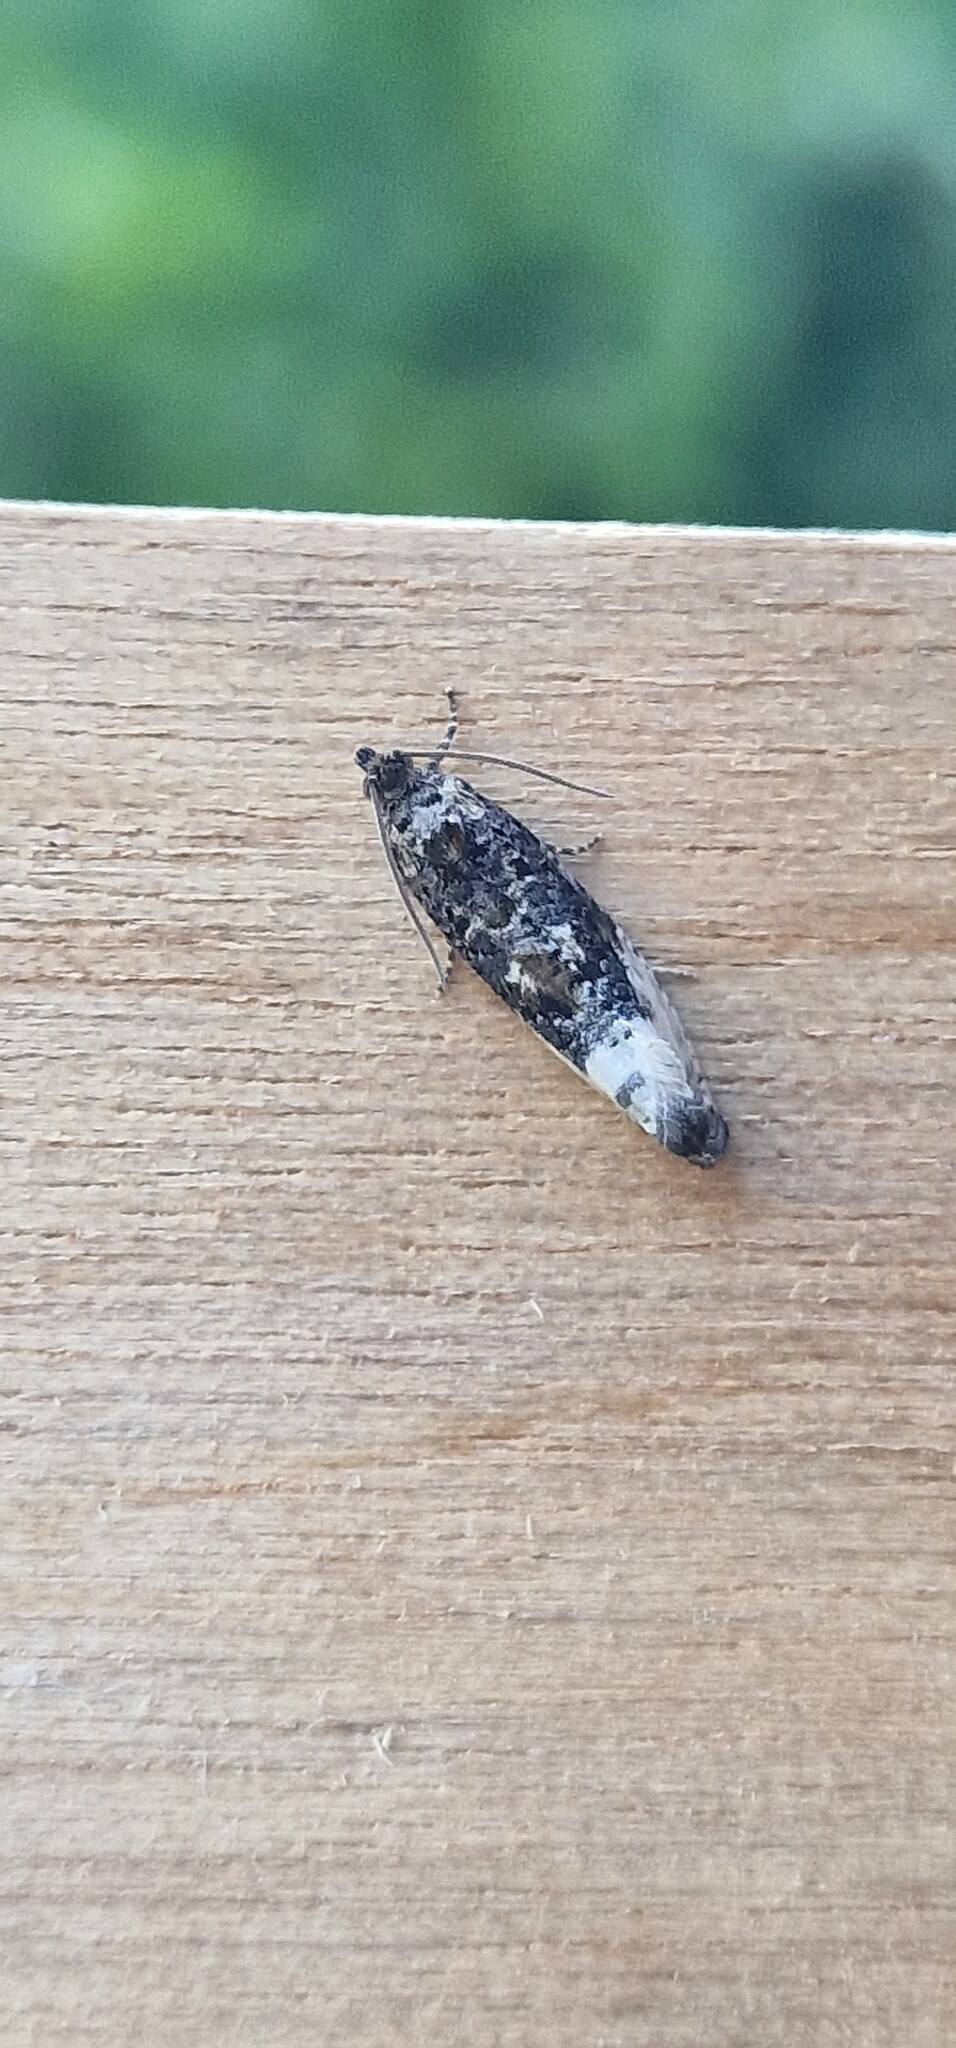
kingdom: Animalia
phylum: Arthropoda
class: Insecta
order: Lepidoptera
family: Tortricidae
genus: Hedya
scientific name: Hedya nubiferana
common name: Marbled orchard tortrix
